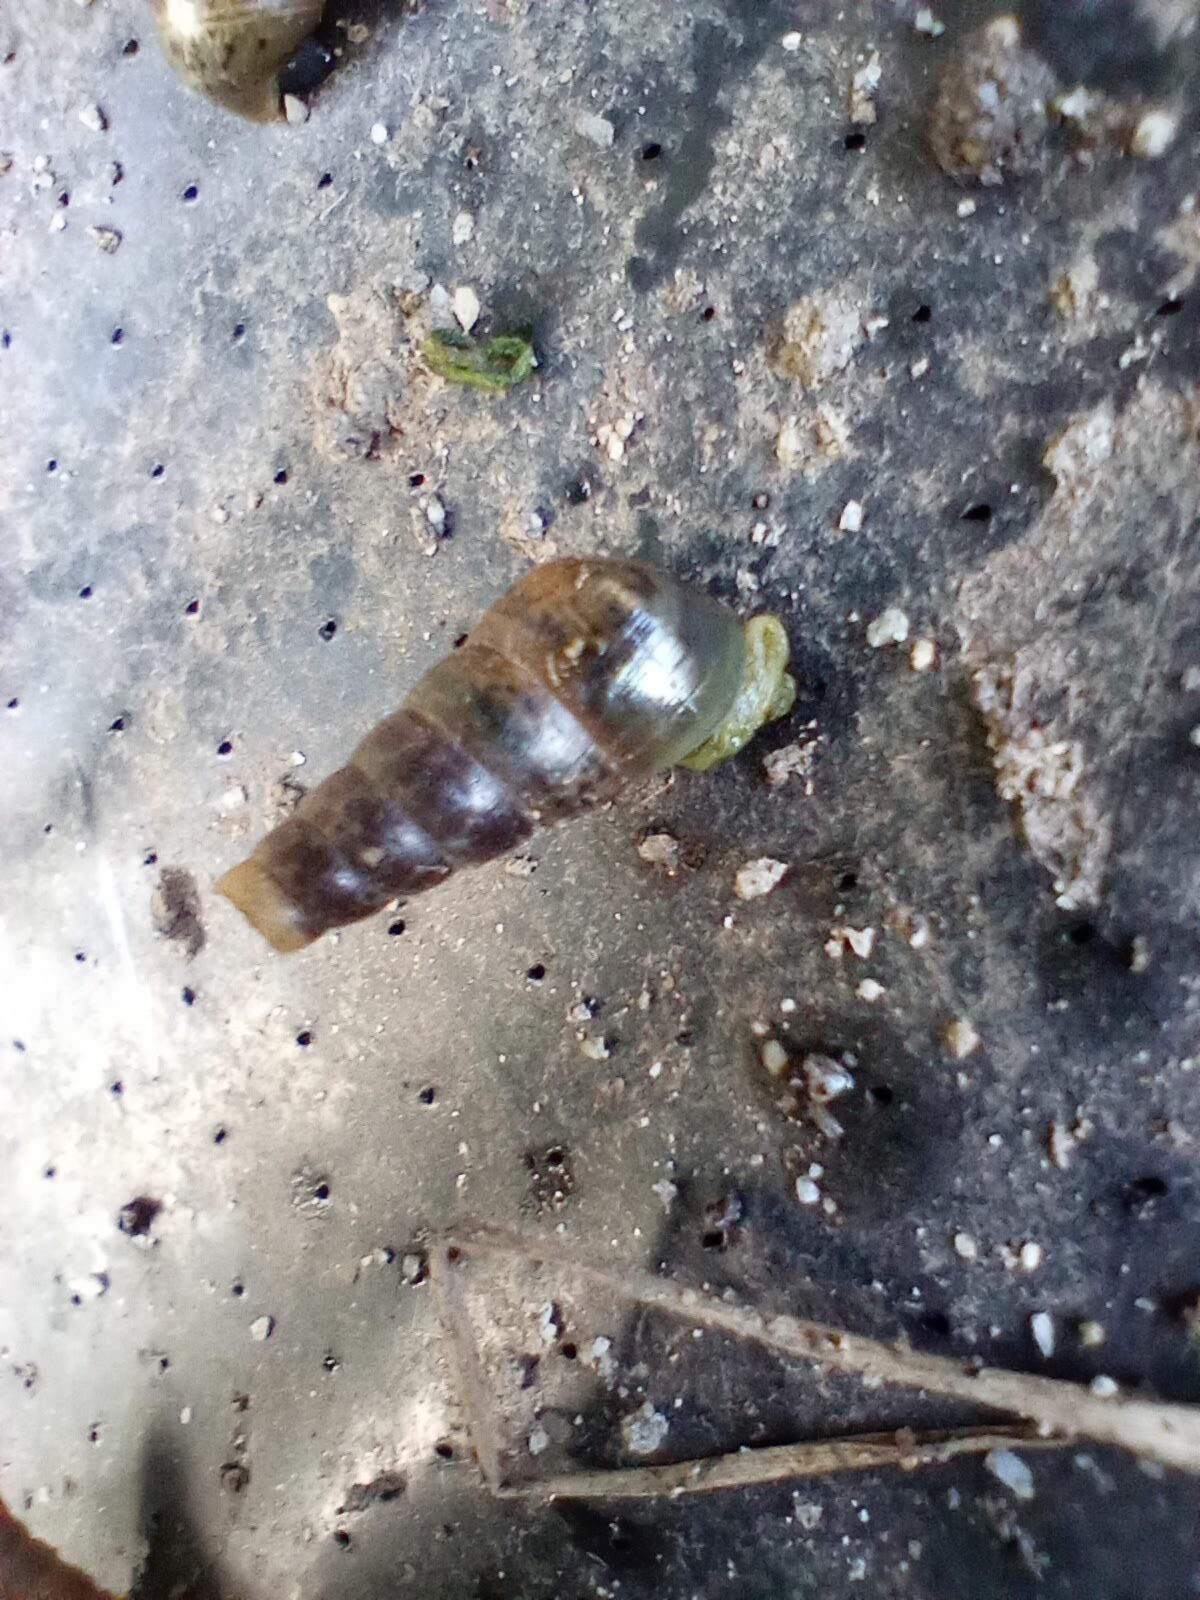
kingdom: Animalia
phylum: Mollusca
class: Gastropoda
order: Stylommatophora
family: Achatinidae
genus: Rumina
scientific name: Rumina decollata
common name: Decollate snail
